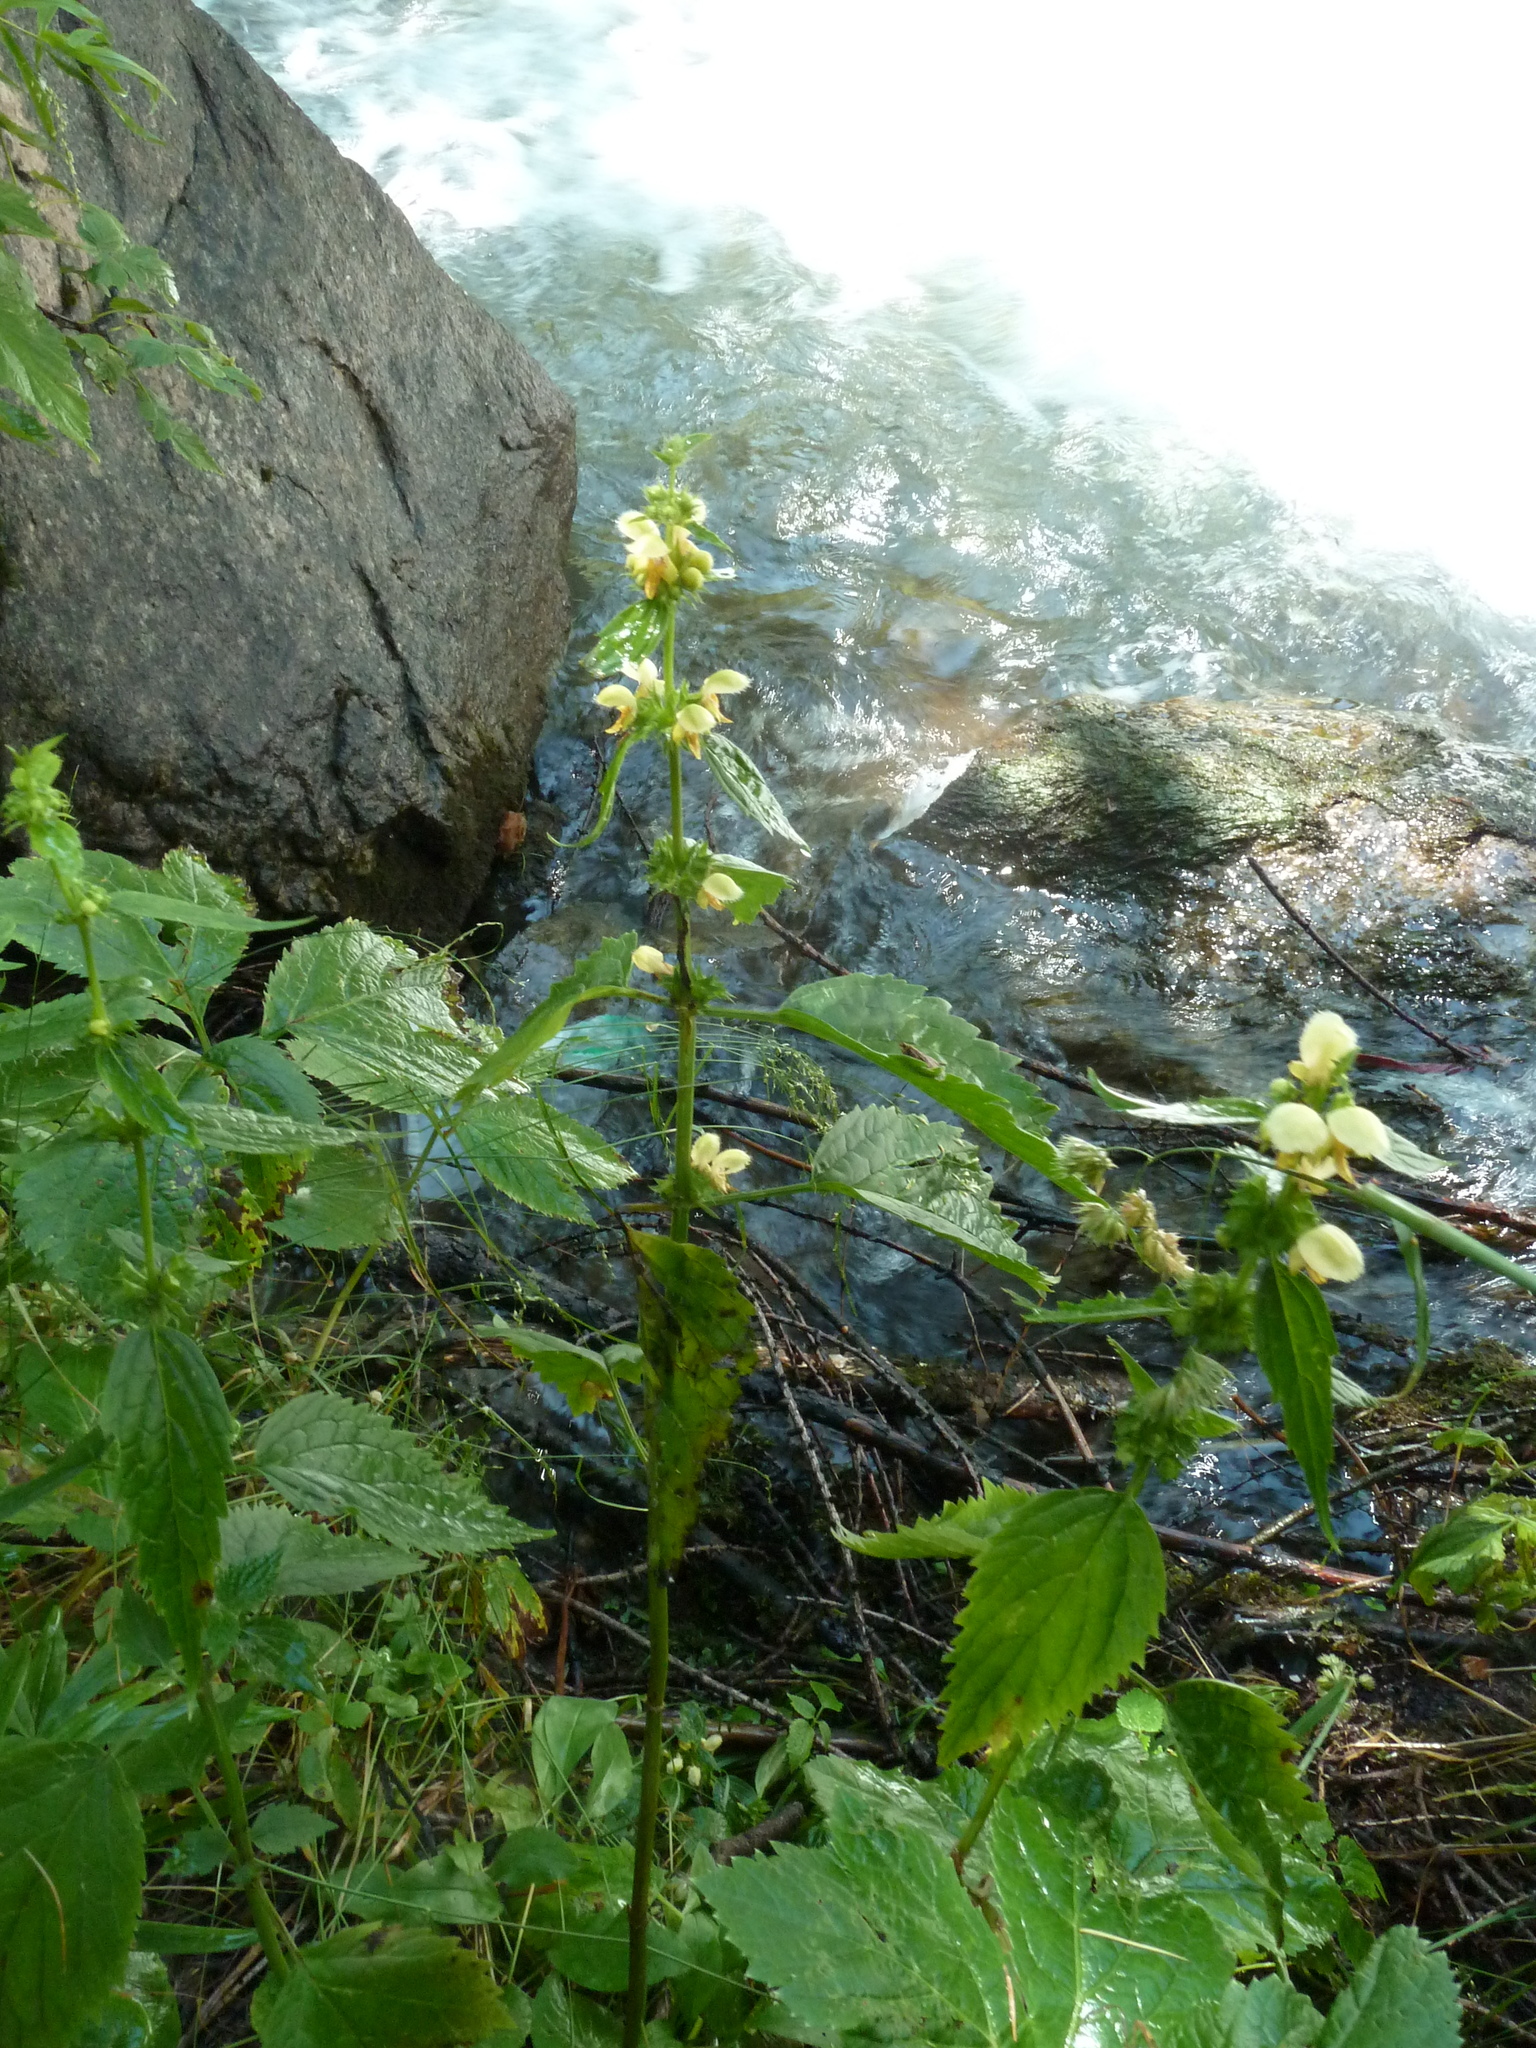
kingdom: Plantae
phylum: Tracheophyta
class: Magnoliopsida
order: Lamiales
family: Lamiaceae
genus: Lamium
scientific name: Lamium galeobdolon
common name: Yellow archangel
